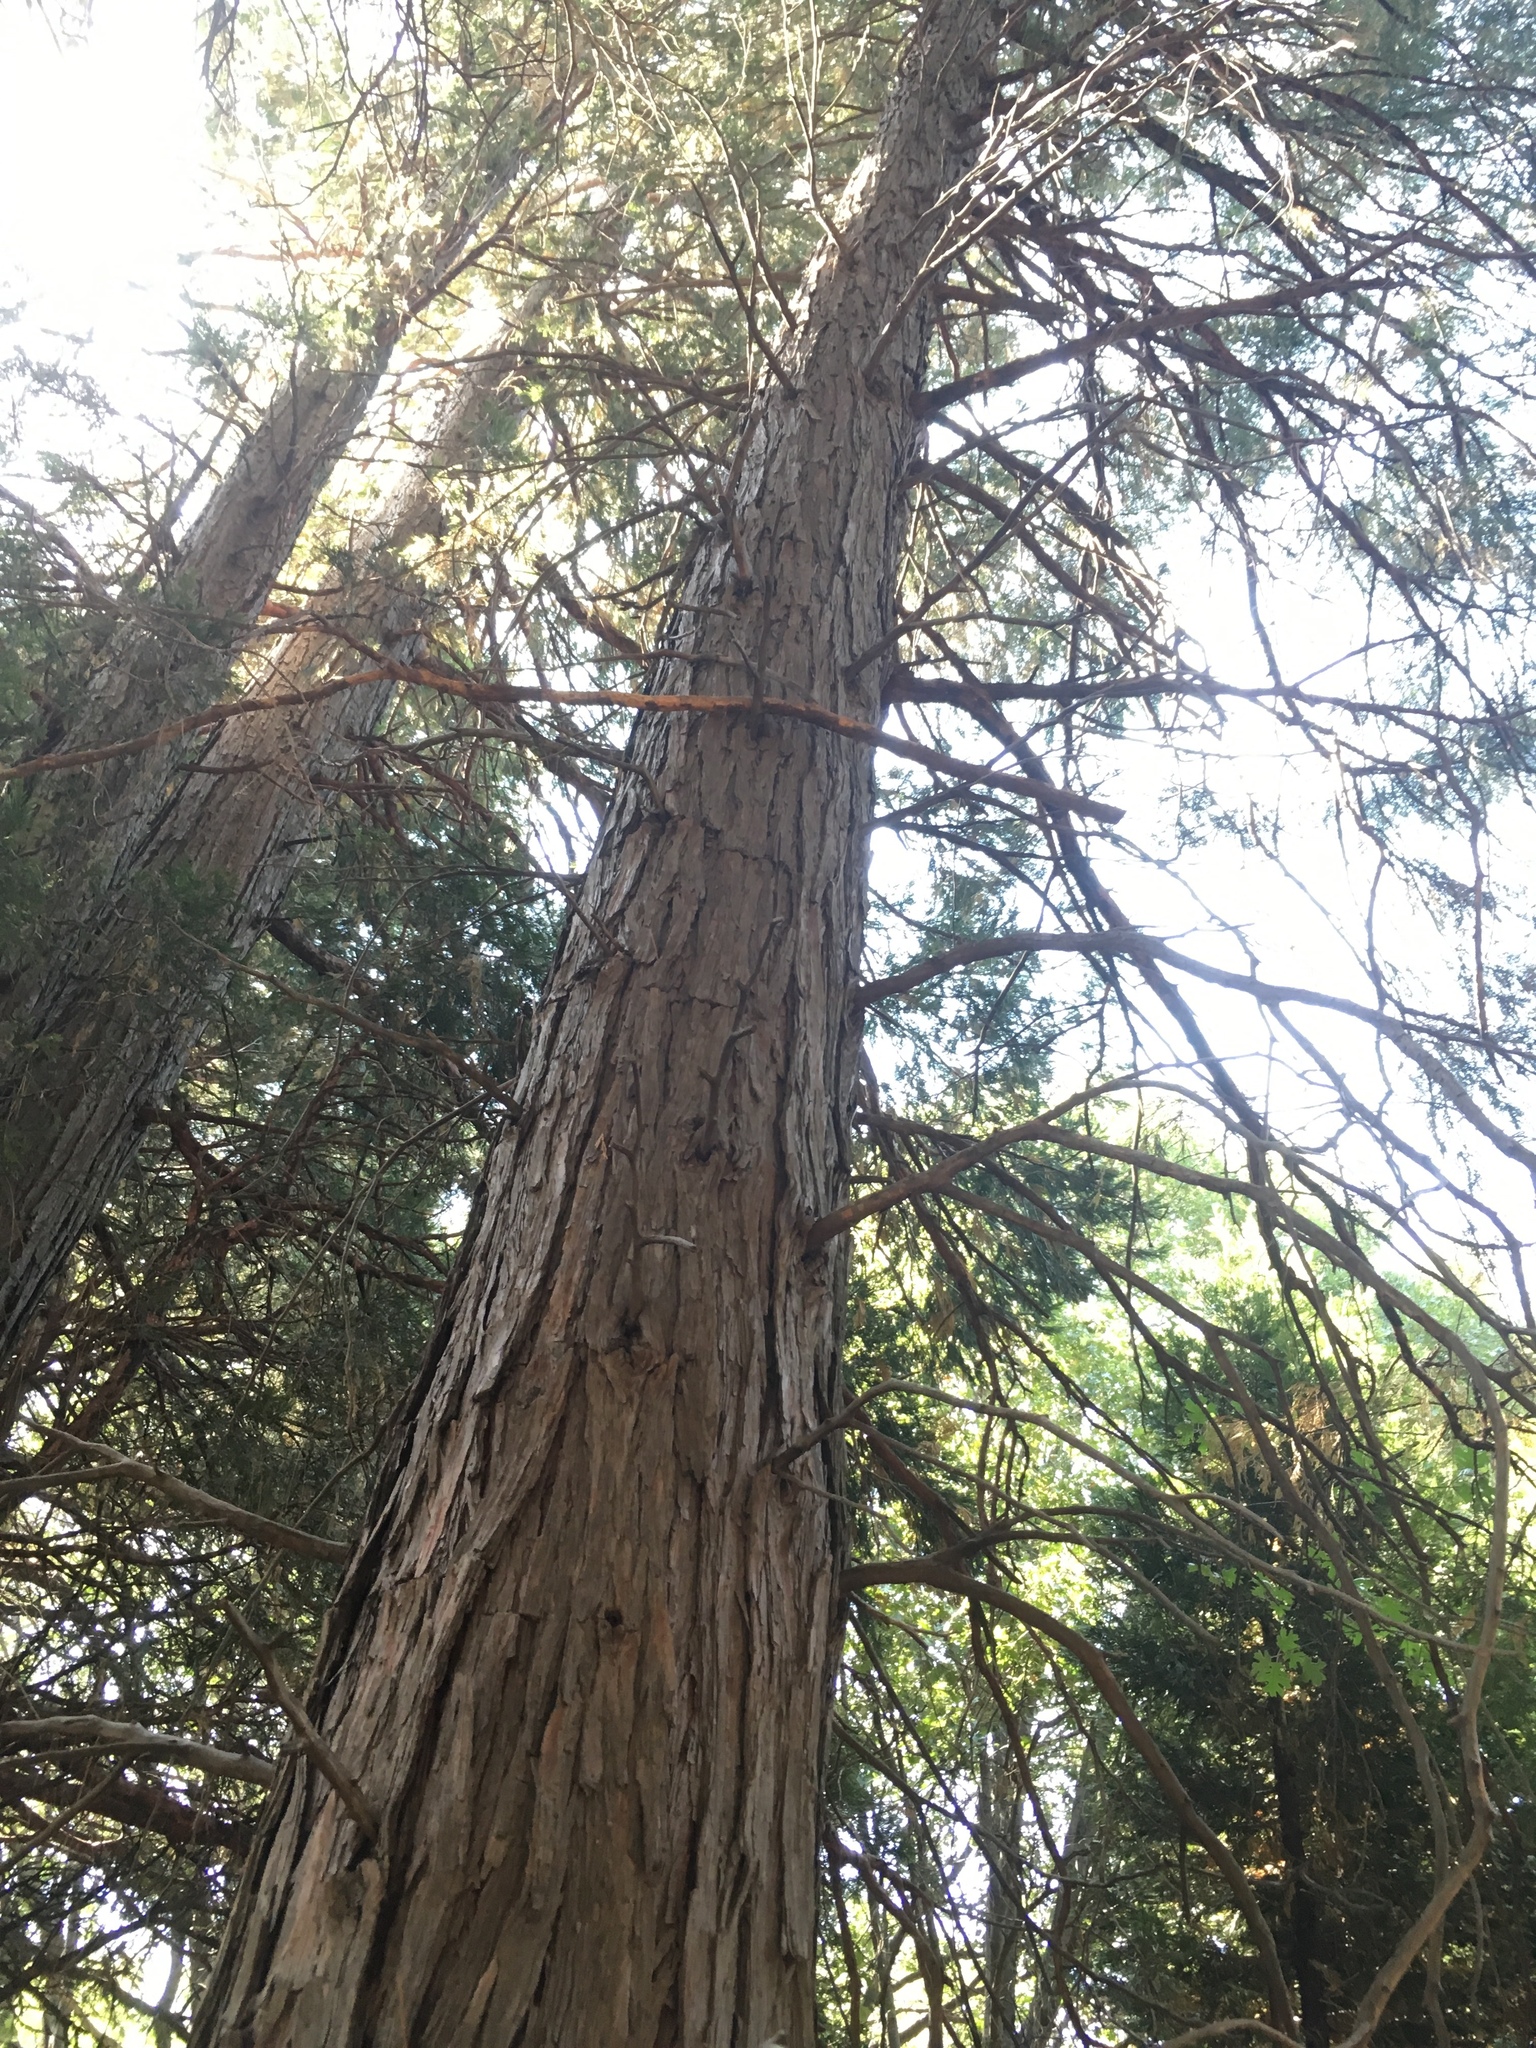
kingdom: Plantae
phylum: Tracheophyta
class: Pinopsida
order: Pinales
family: Cupressaceae
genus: Calocedrus
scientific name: Calocedrus decurrens
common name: Californian incense-cedar
